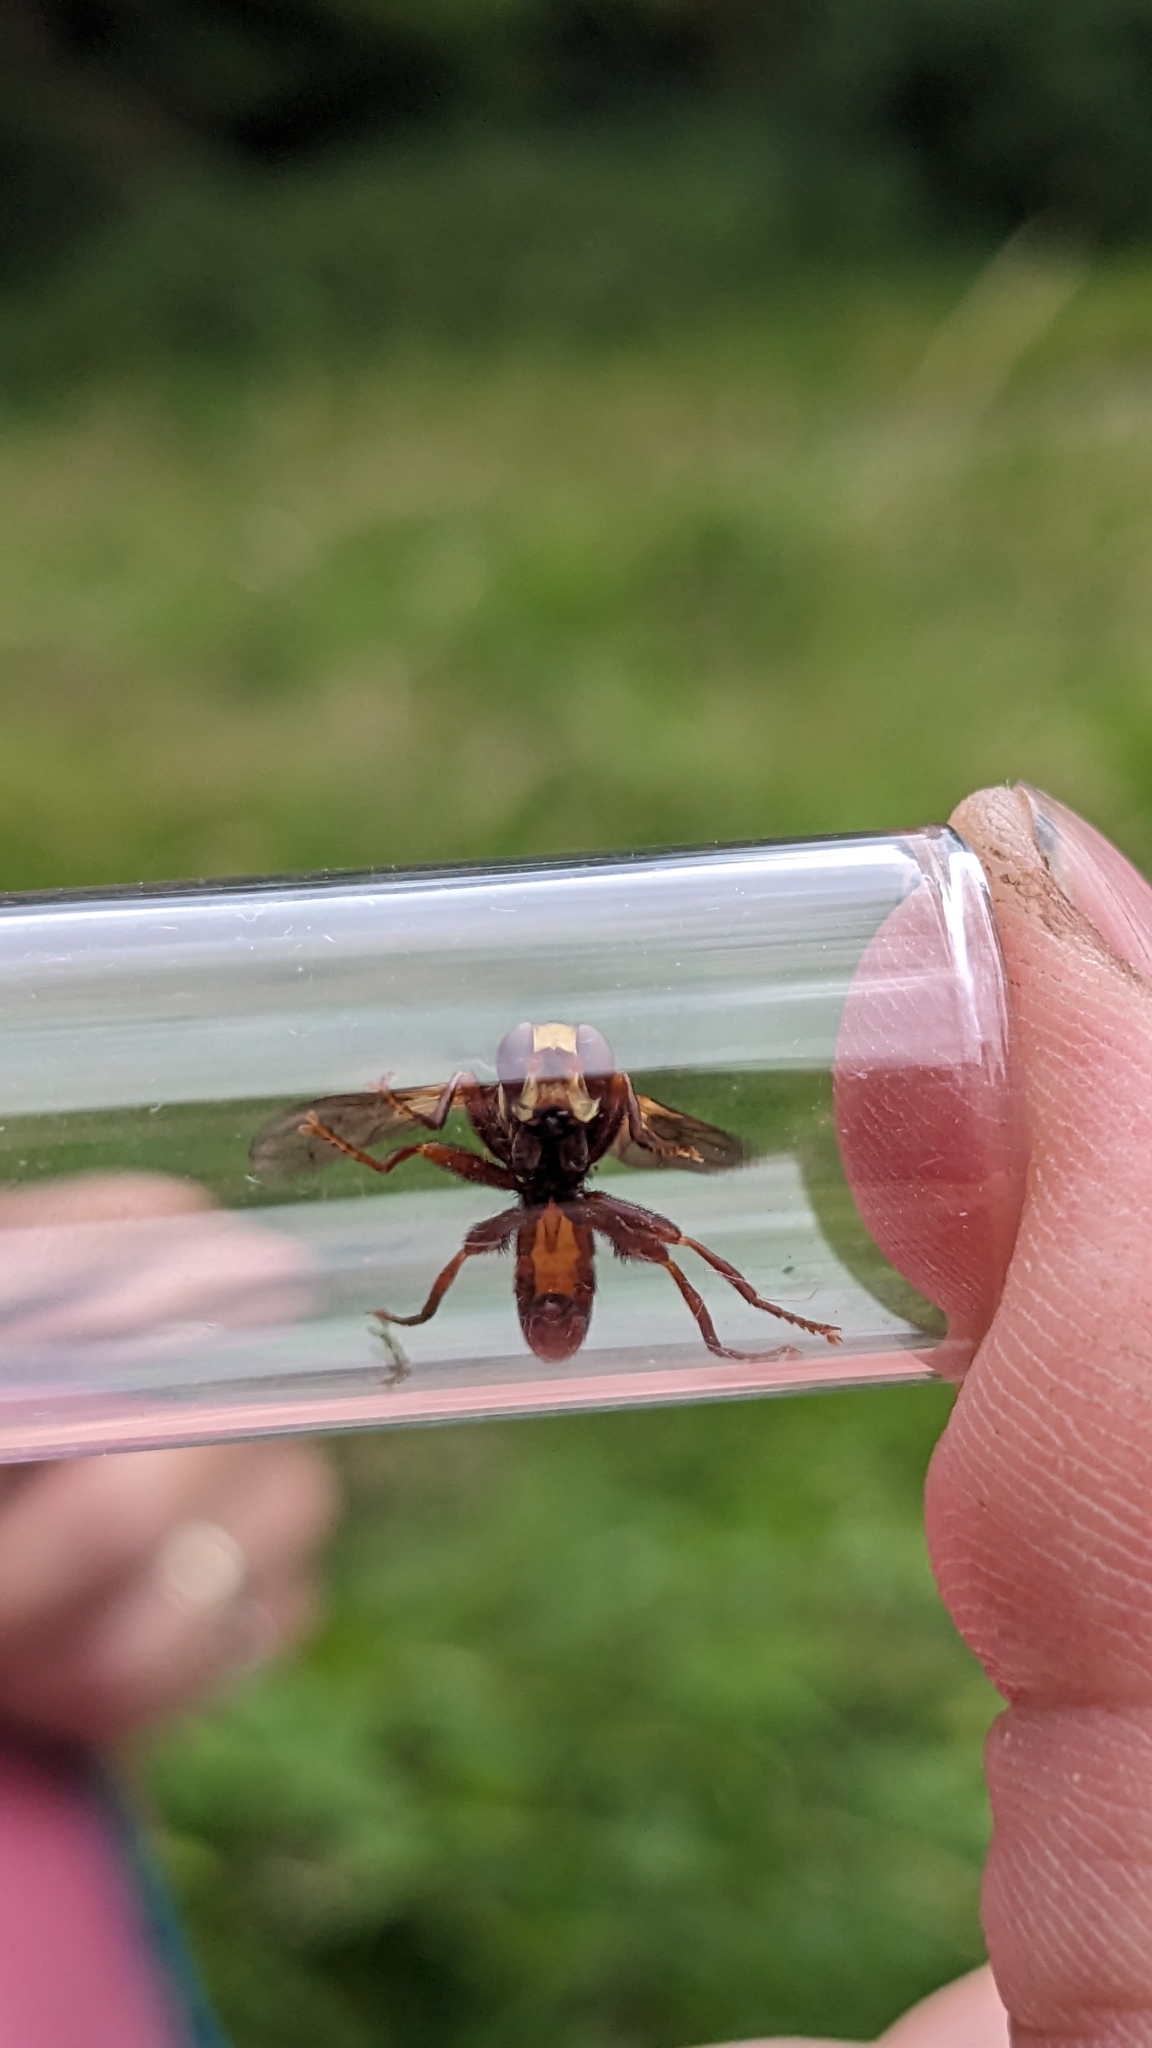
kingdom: Animalia
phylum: Arthropoda
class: Insecta
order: Diptera
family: Conopidae
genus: Sicus
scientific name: Sicus ferrugineus
